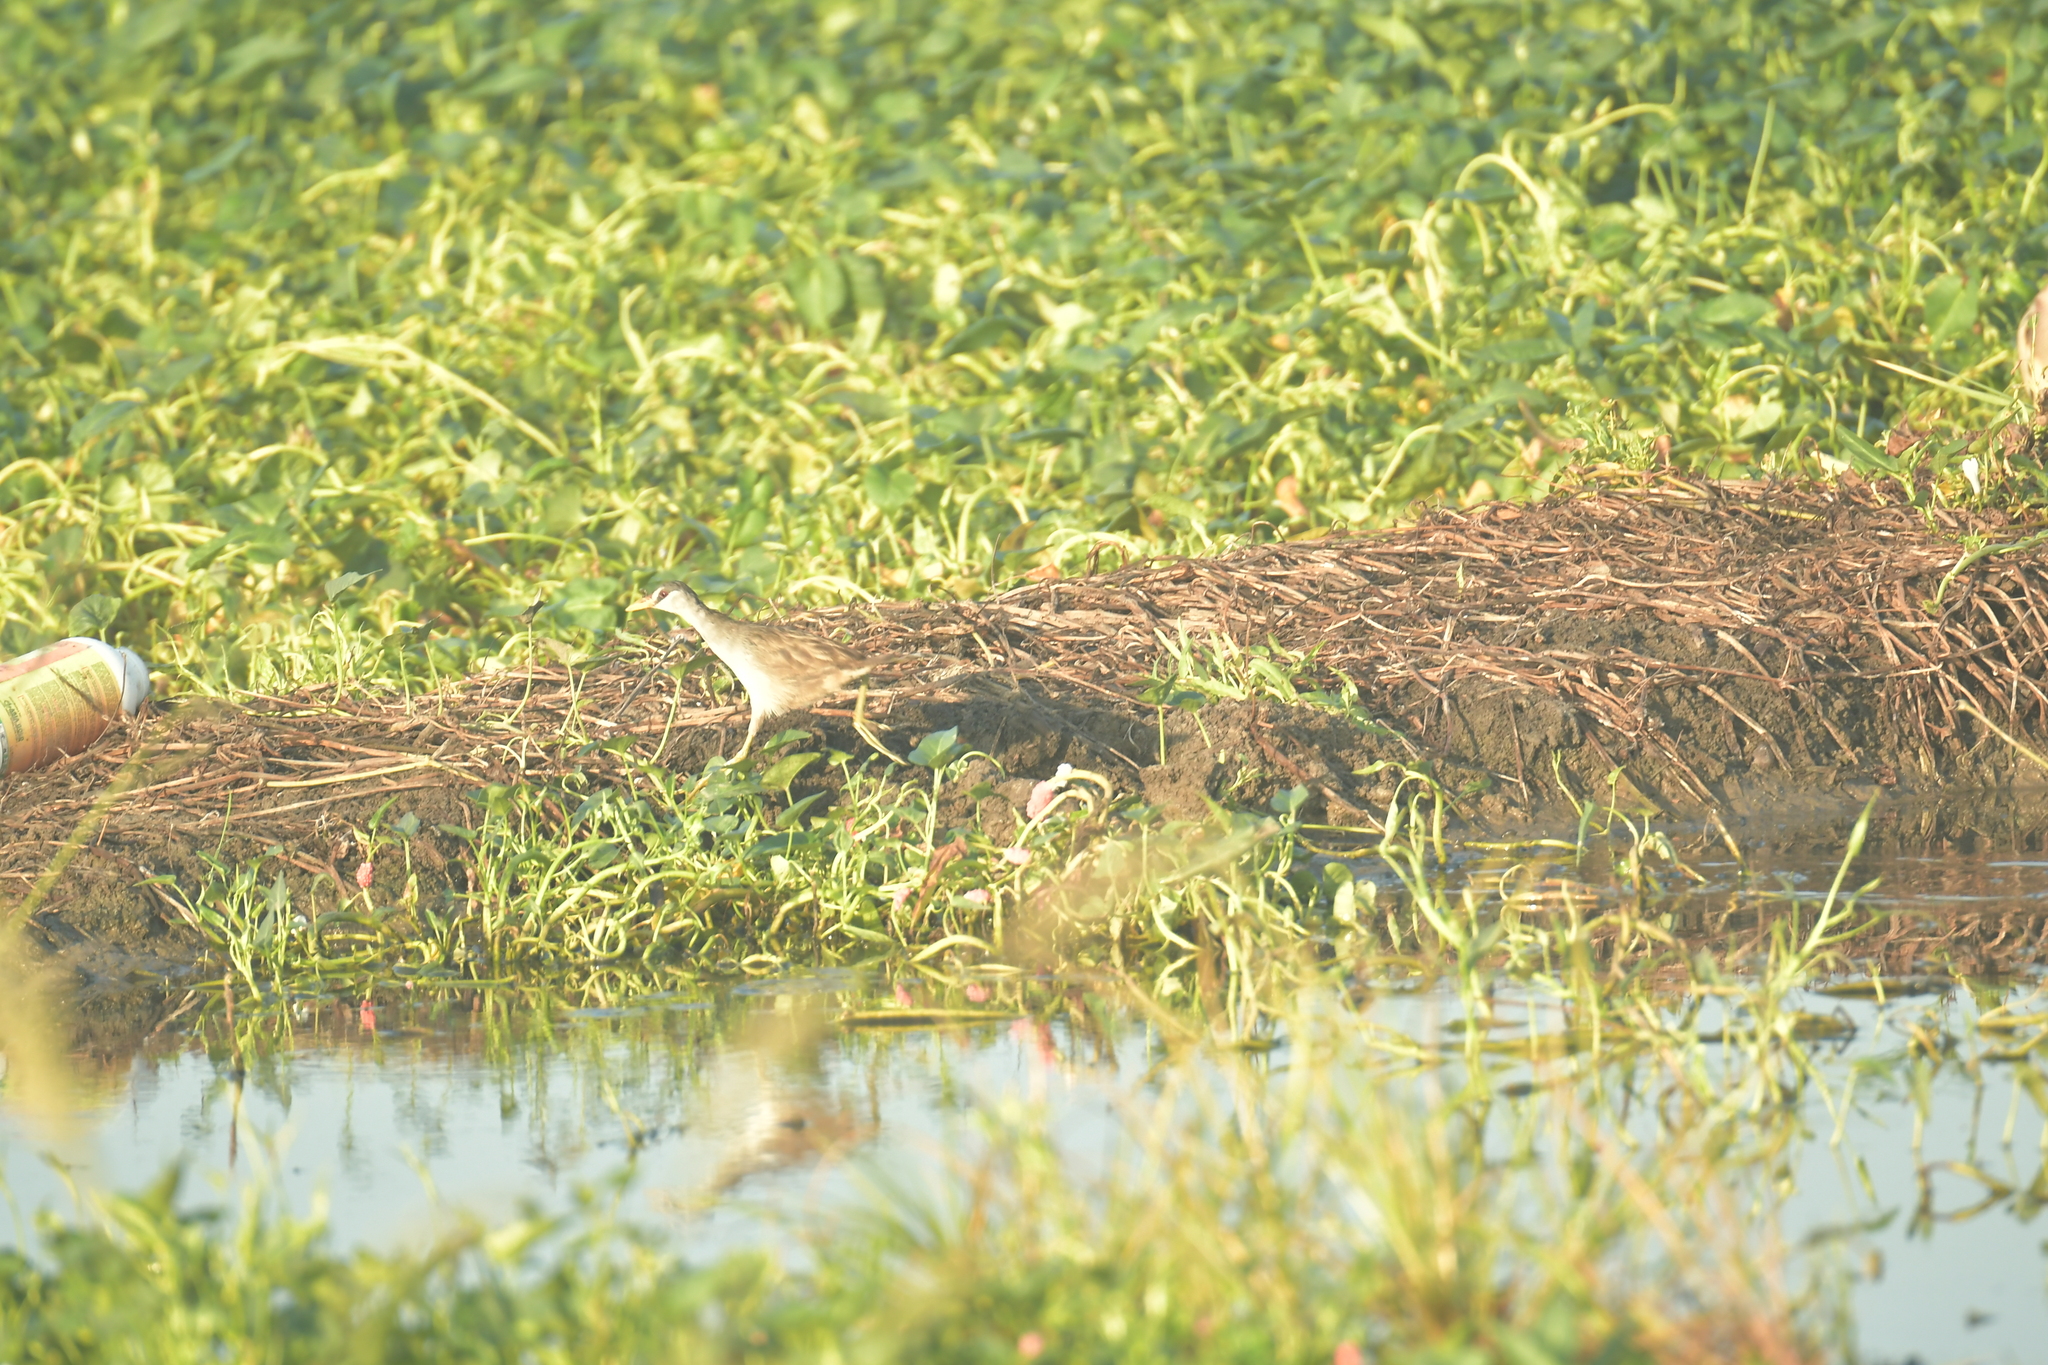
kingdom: Animalia
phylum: Chordata
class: Aves
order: Gruiformes
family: Rallidae
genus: Porzana
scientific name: Porzana cinerea
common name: White-browed crake
